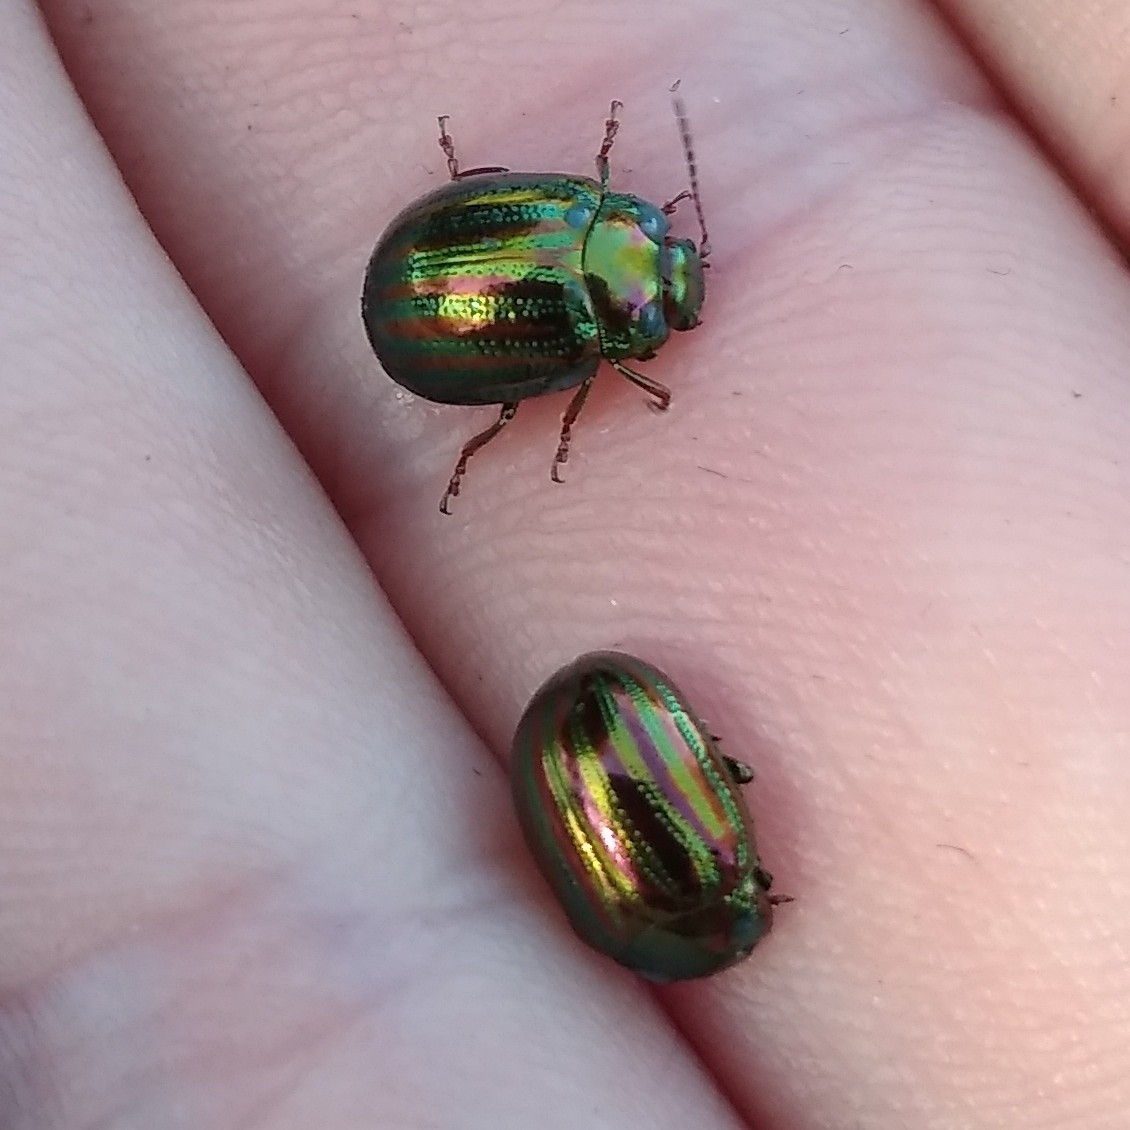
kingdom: Animalia
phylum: Arthropoda
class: Insecta
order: Coleoptera
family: Chrysomelidae
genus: Chrysolina
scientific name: Chrysolina americana
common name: Rosemary beetle
